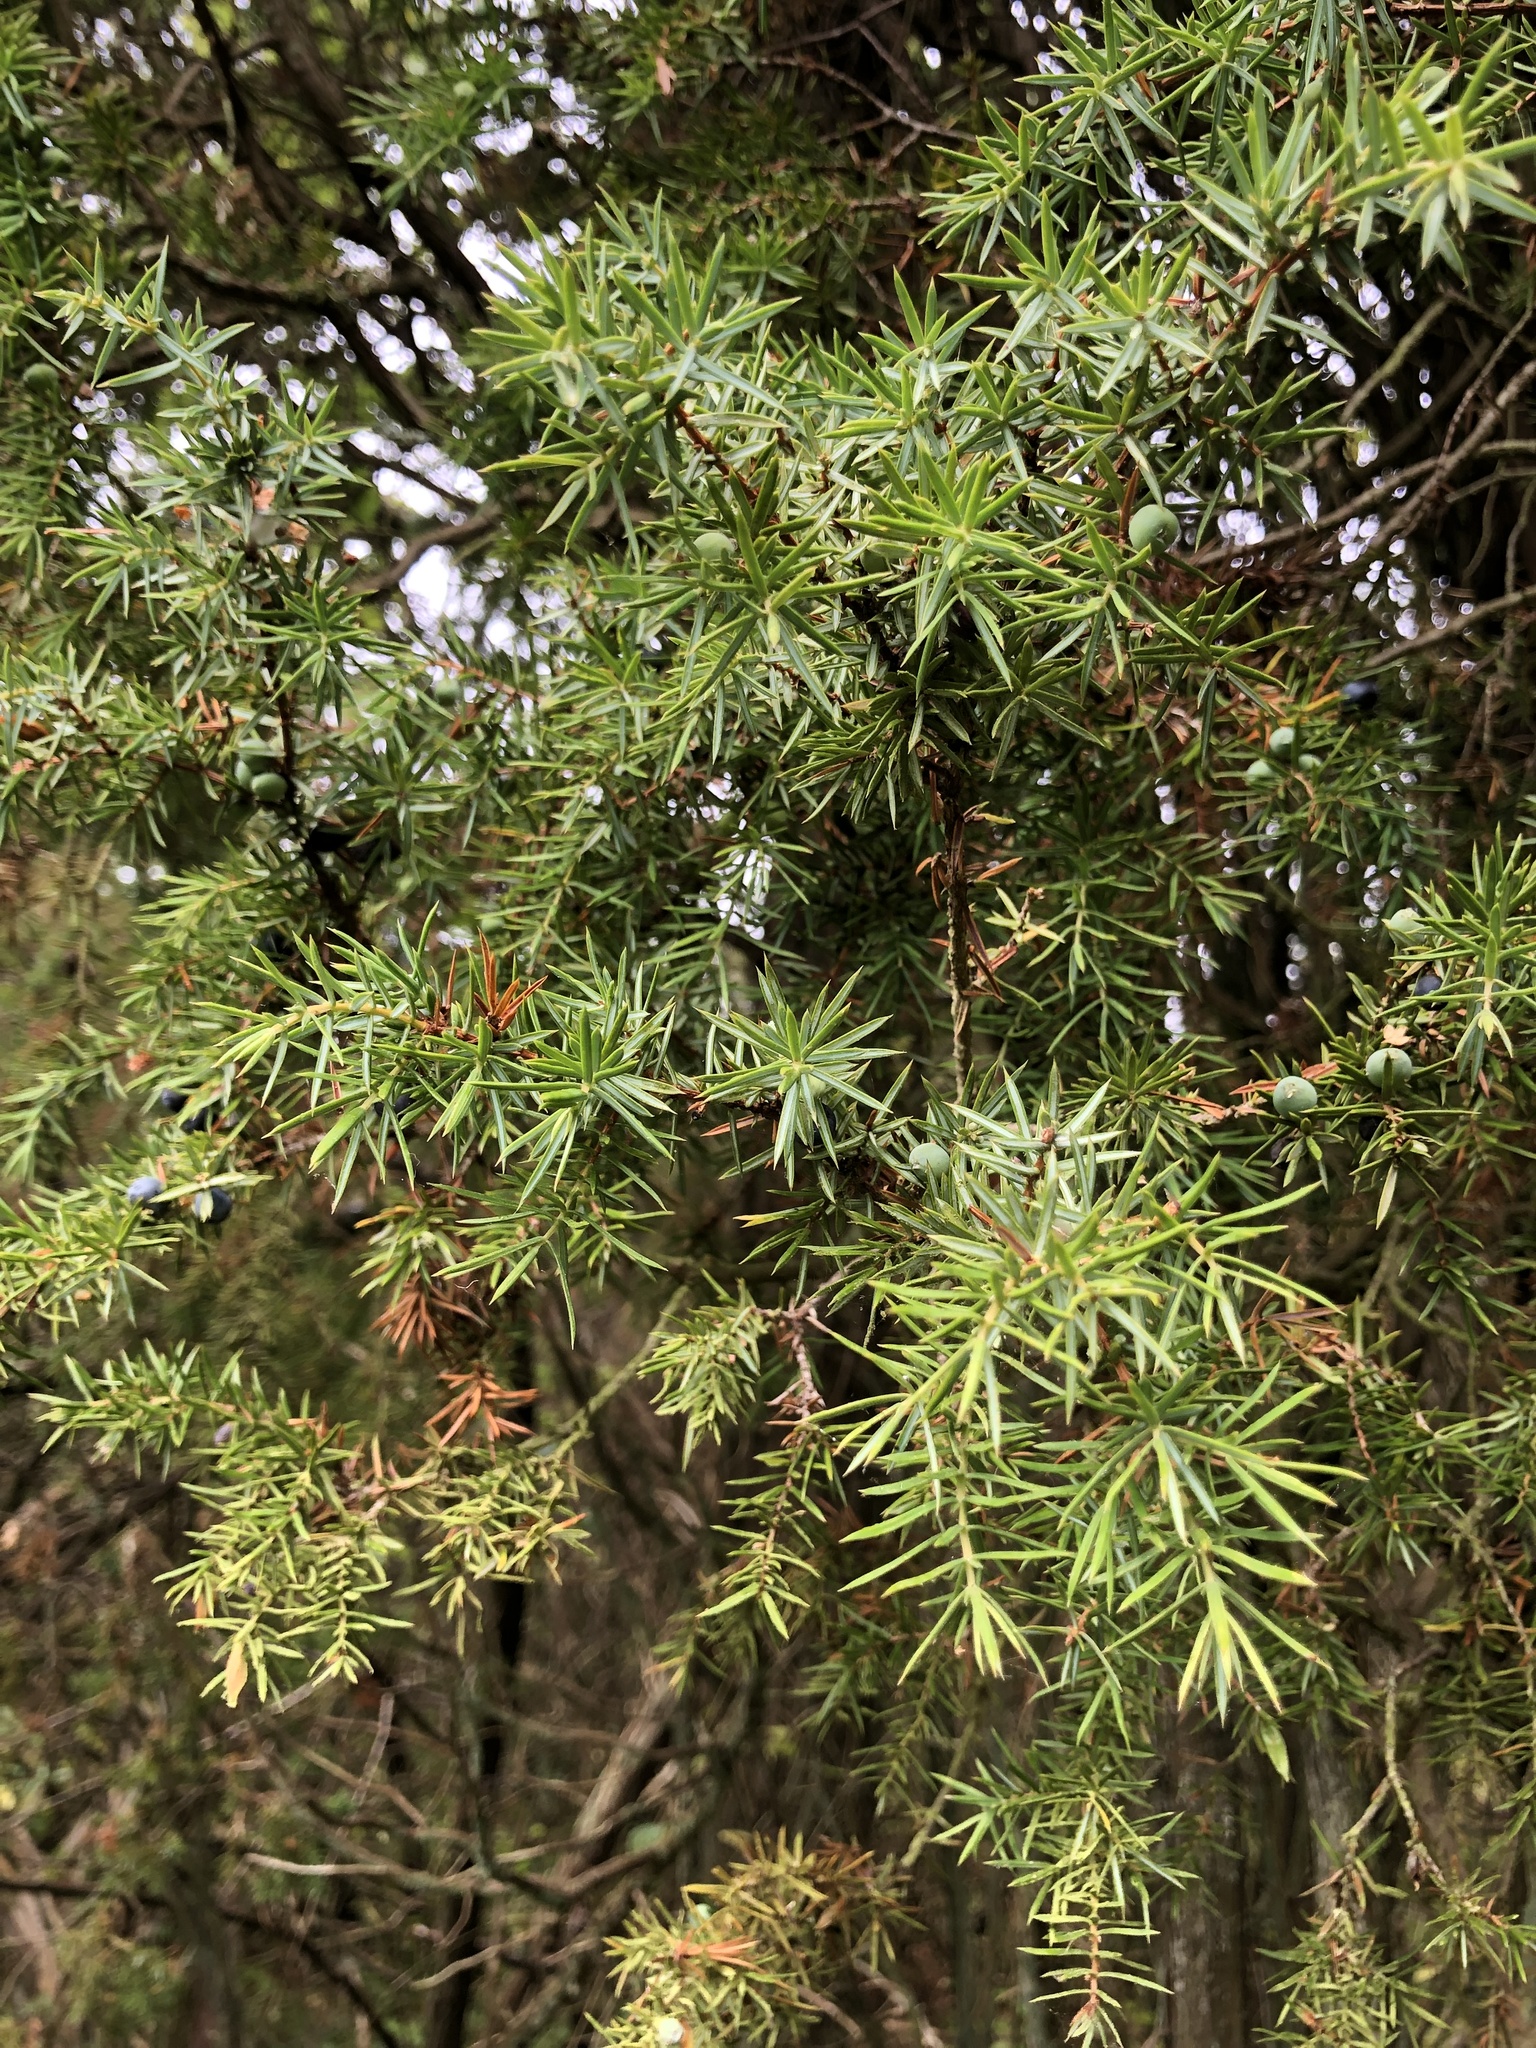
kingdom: Plantae
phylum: Tracheophyta
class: Pinopsida
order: Pinales
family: Cupressaceae
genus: Juniperus
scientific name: Juniperus communis
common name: Common juniper
